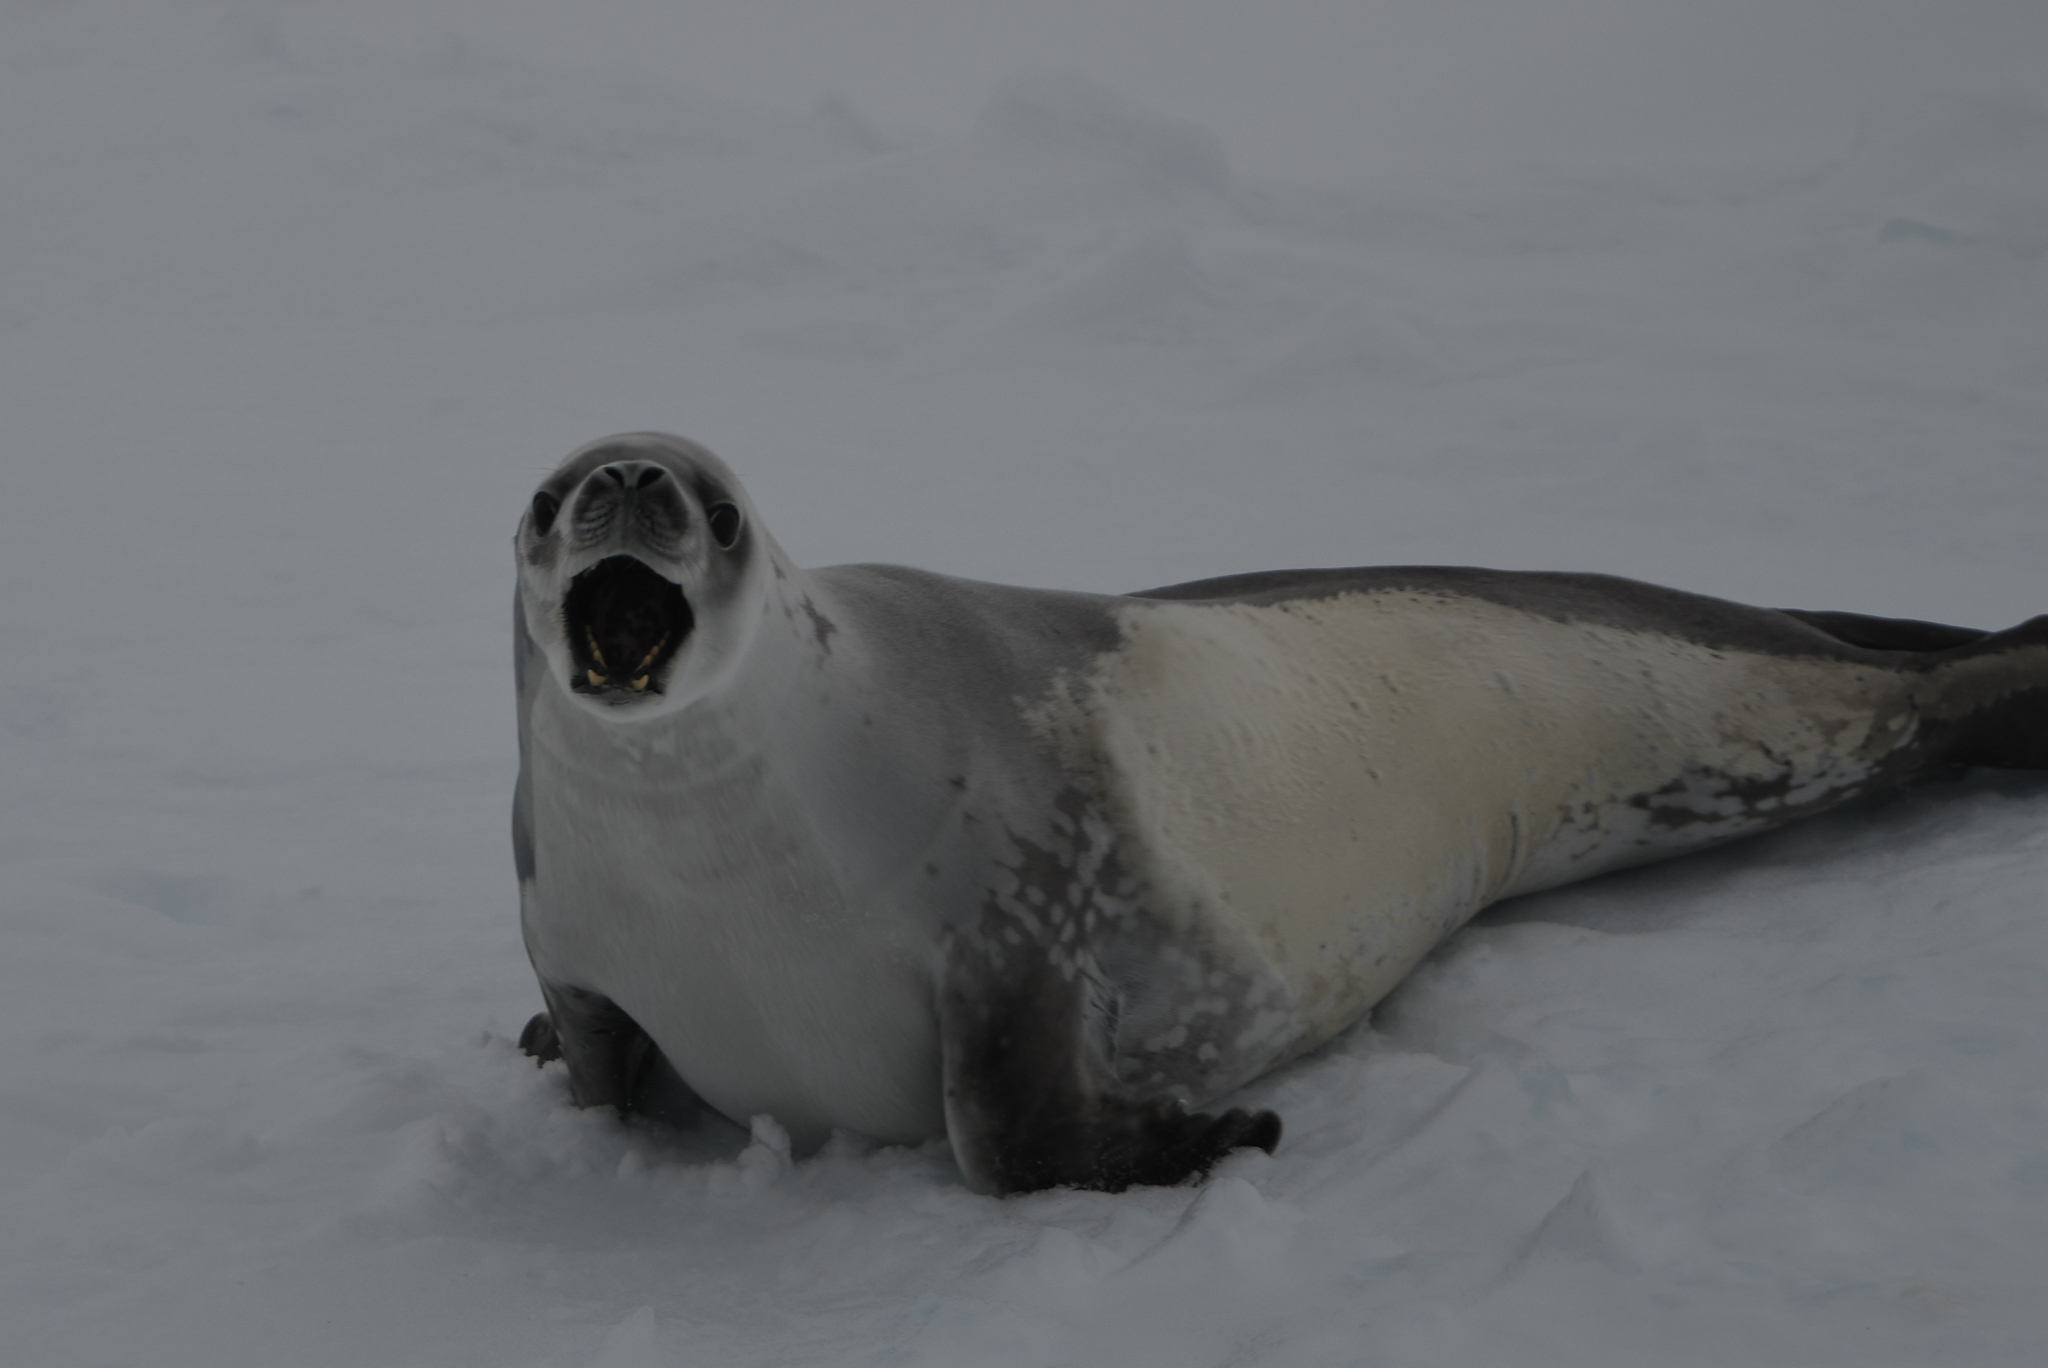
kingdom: Animalia
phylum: Chordata
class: Mammalia
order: Carnivora
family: Phocidae
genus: Lobodon
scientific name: Lobodon carcinophaga
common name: Crabeater seal
